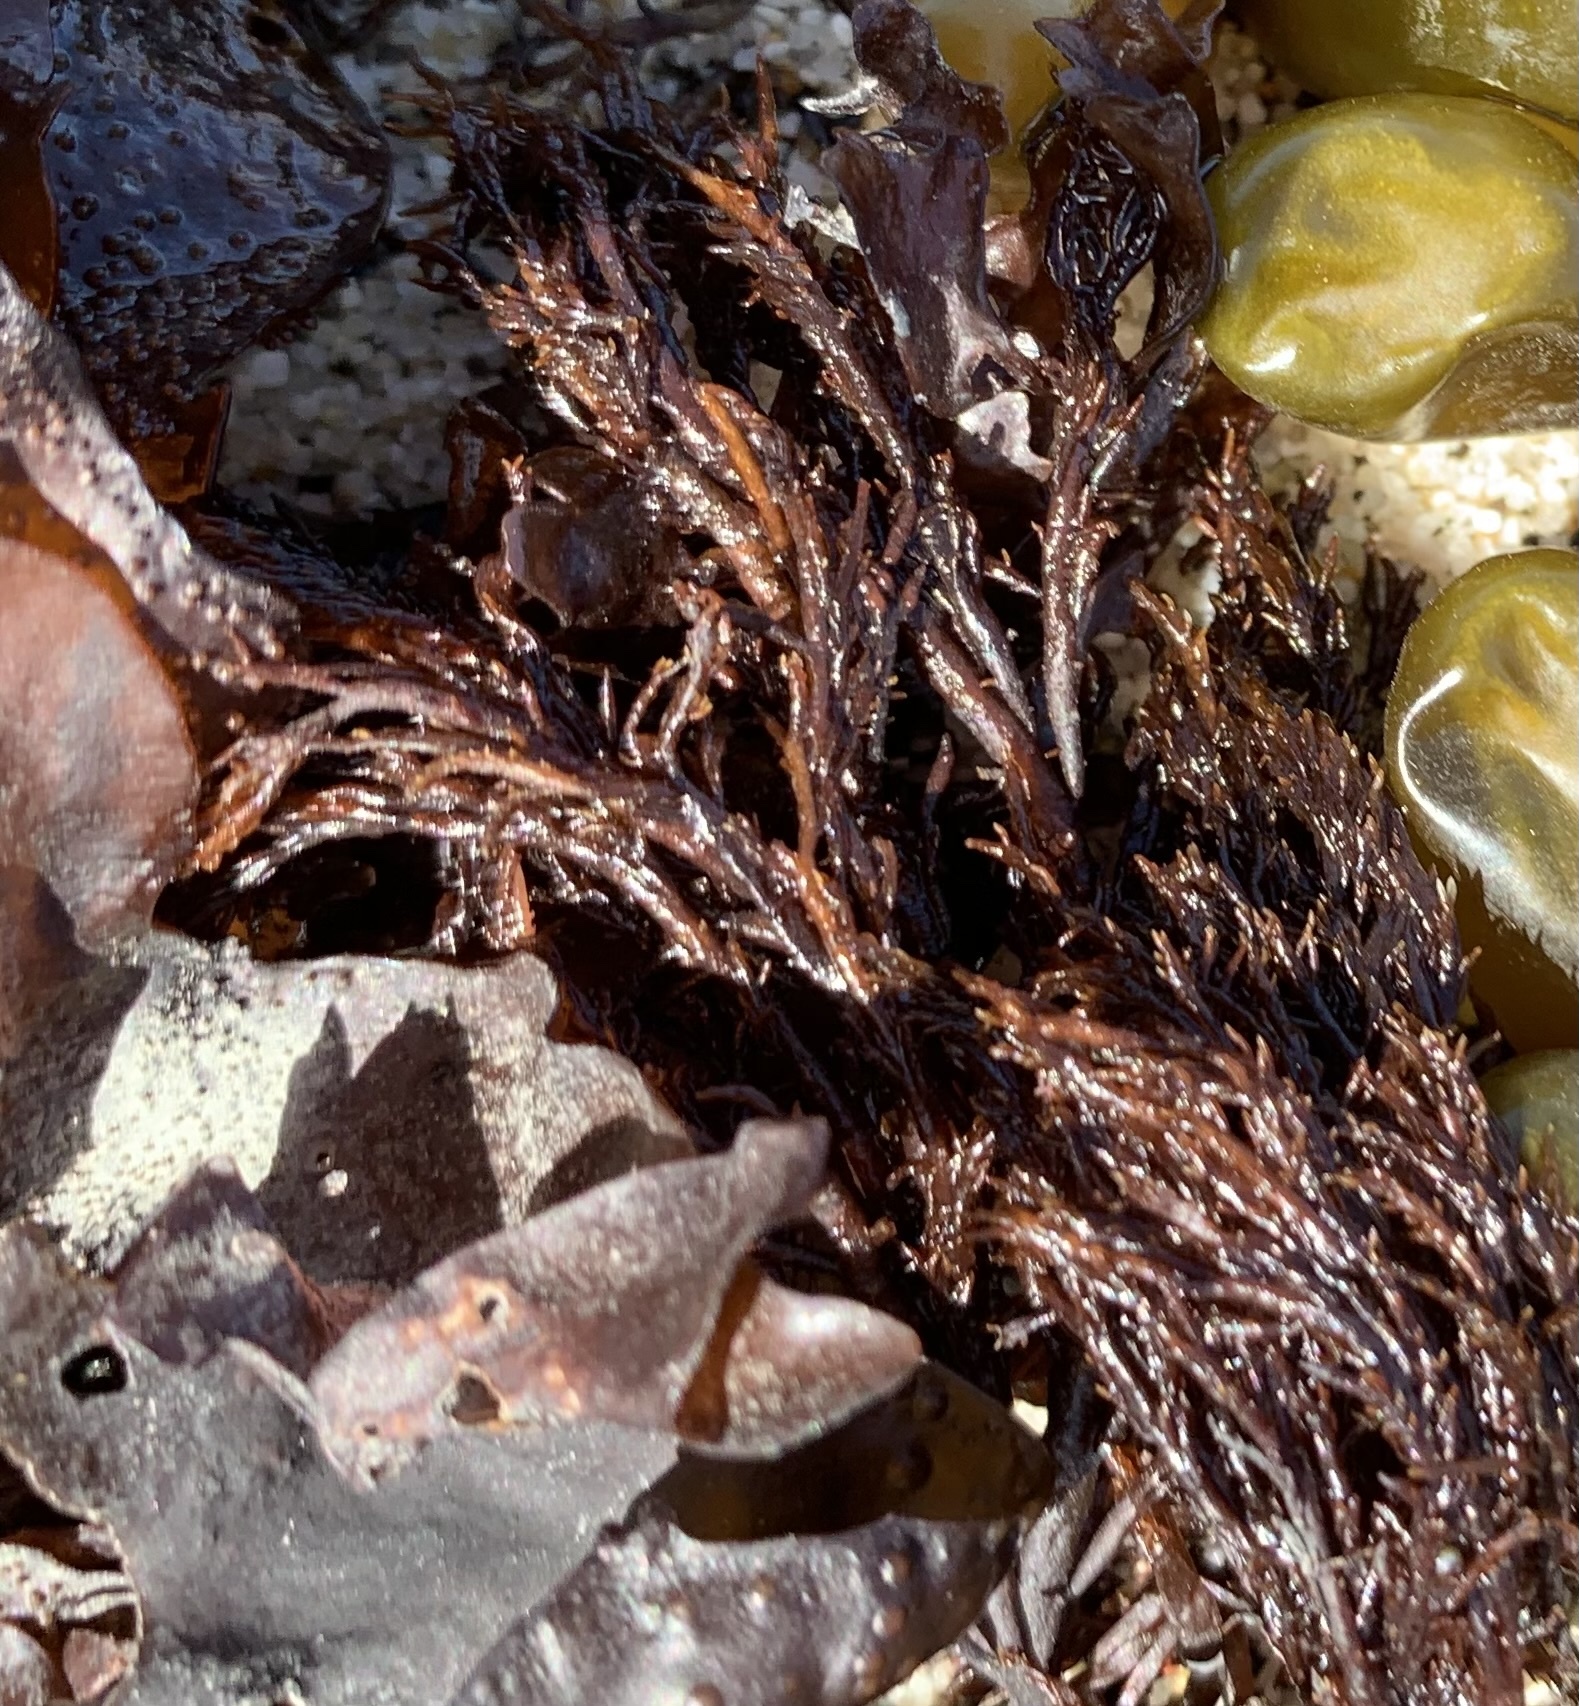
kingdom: Plantae
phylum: Rhodophyta
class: Florideophyceae
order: Gigartinales
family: Dumontiaceae
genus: Cryptosiphonia
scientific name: Cryptosiphonia woodii
